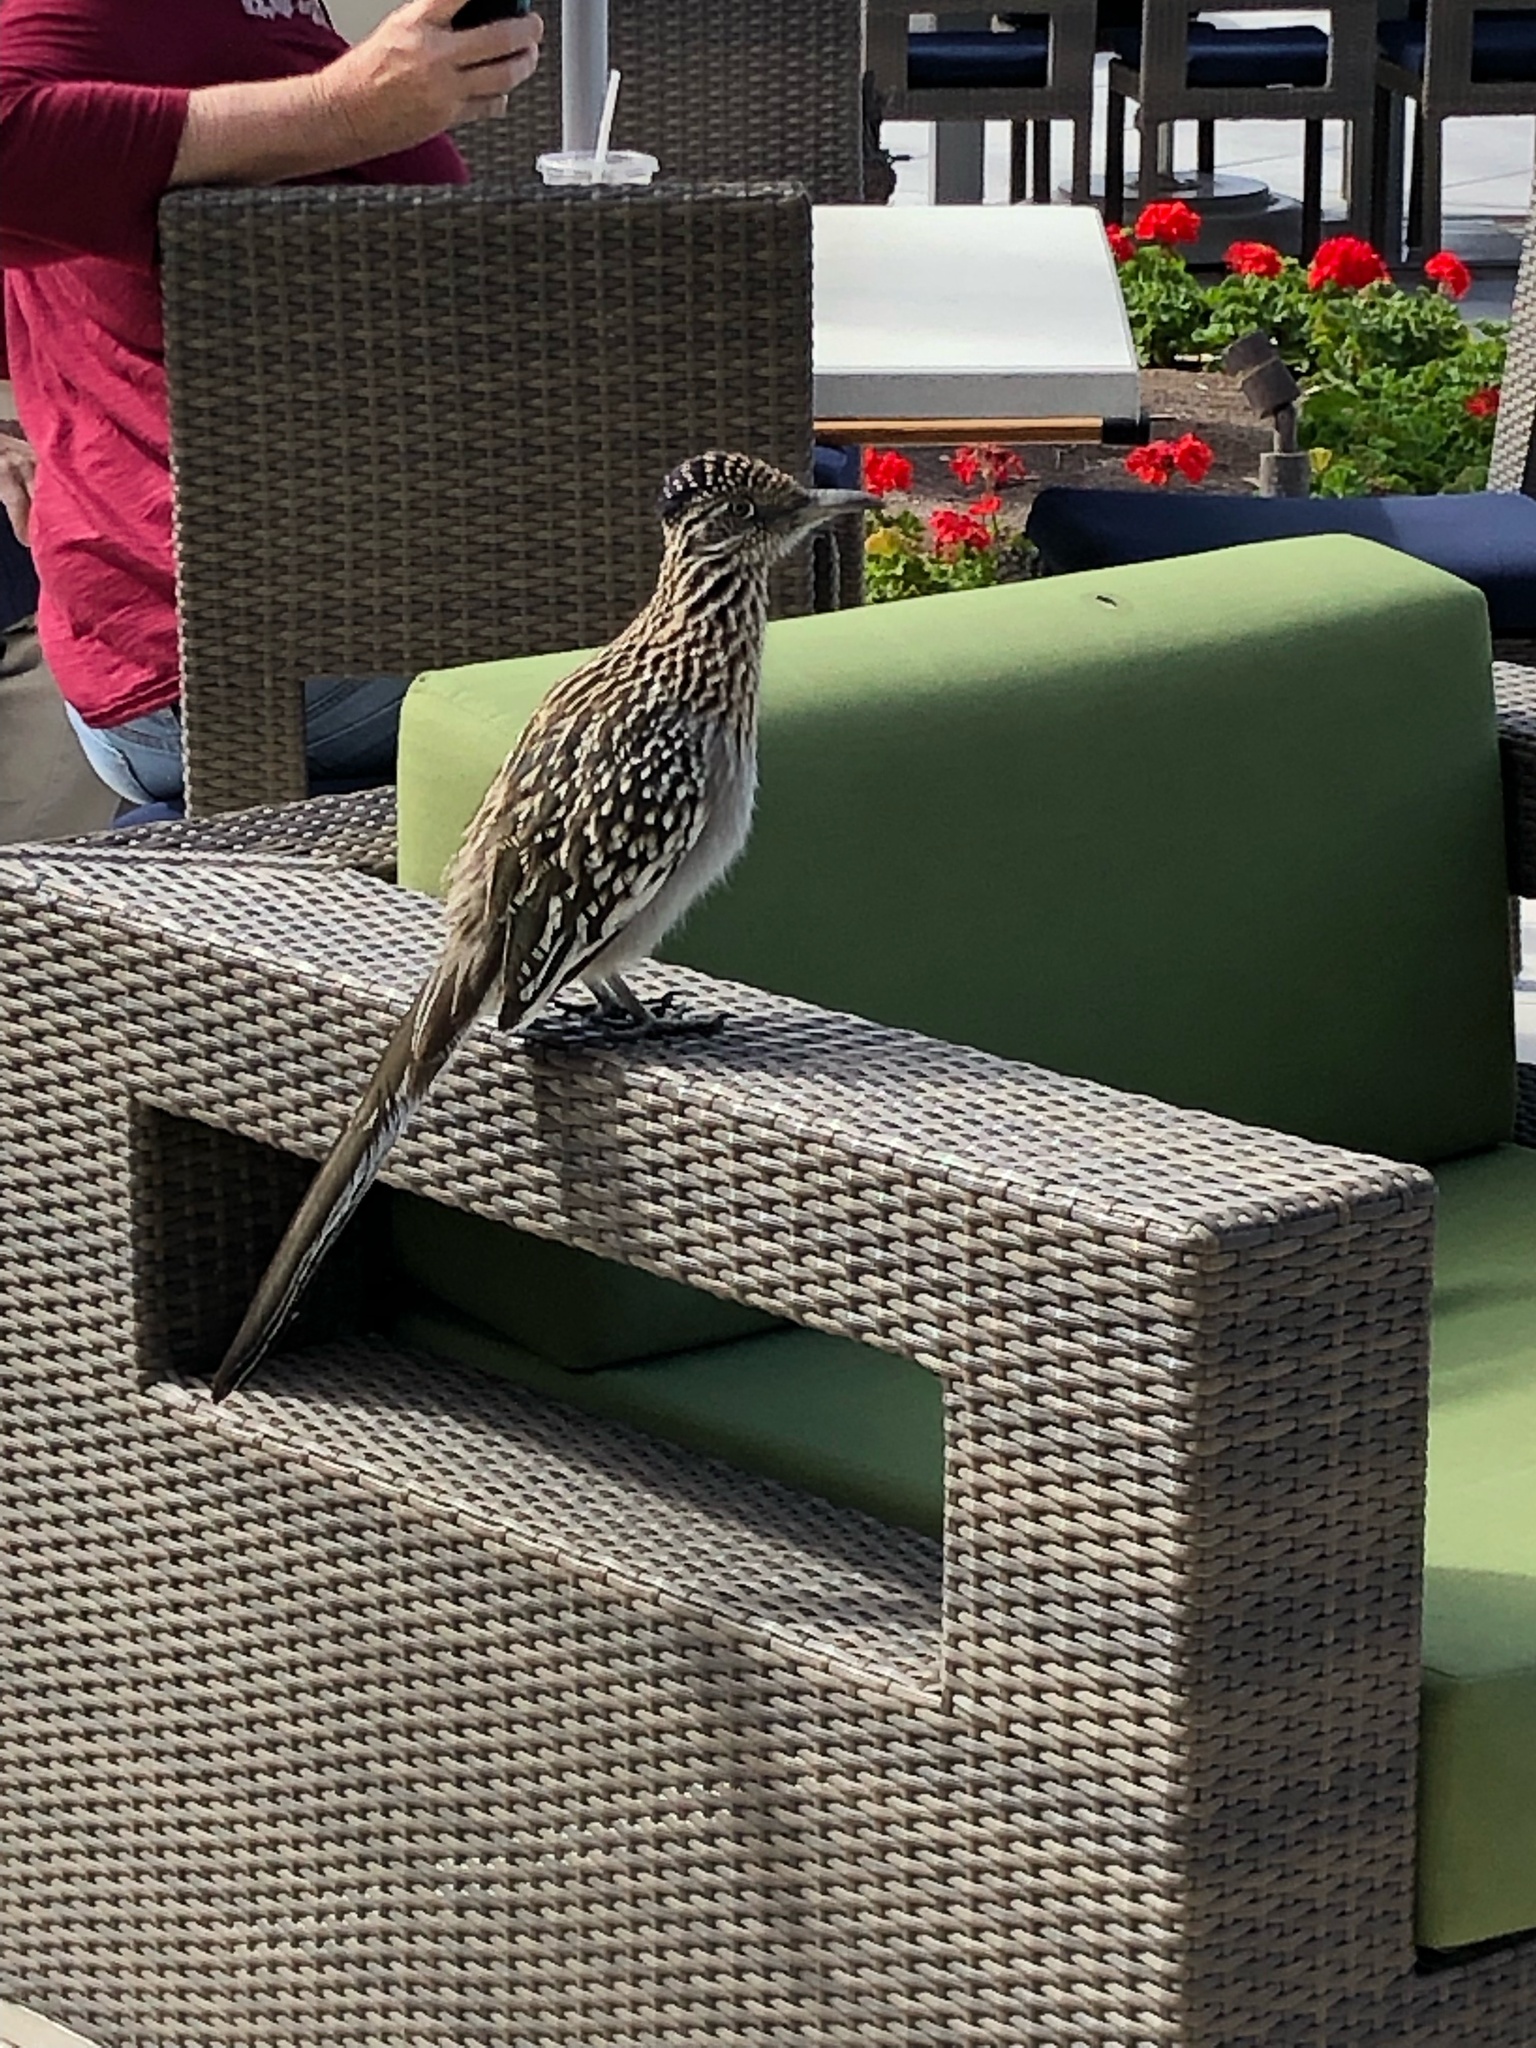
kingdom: Animalia
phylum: Chordata
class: Aves
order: Cuculiformes
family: Cuculidae
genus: Geococcyx
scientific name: Geococcyx californianus
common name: Greater roadrunner
